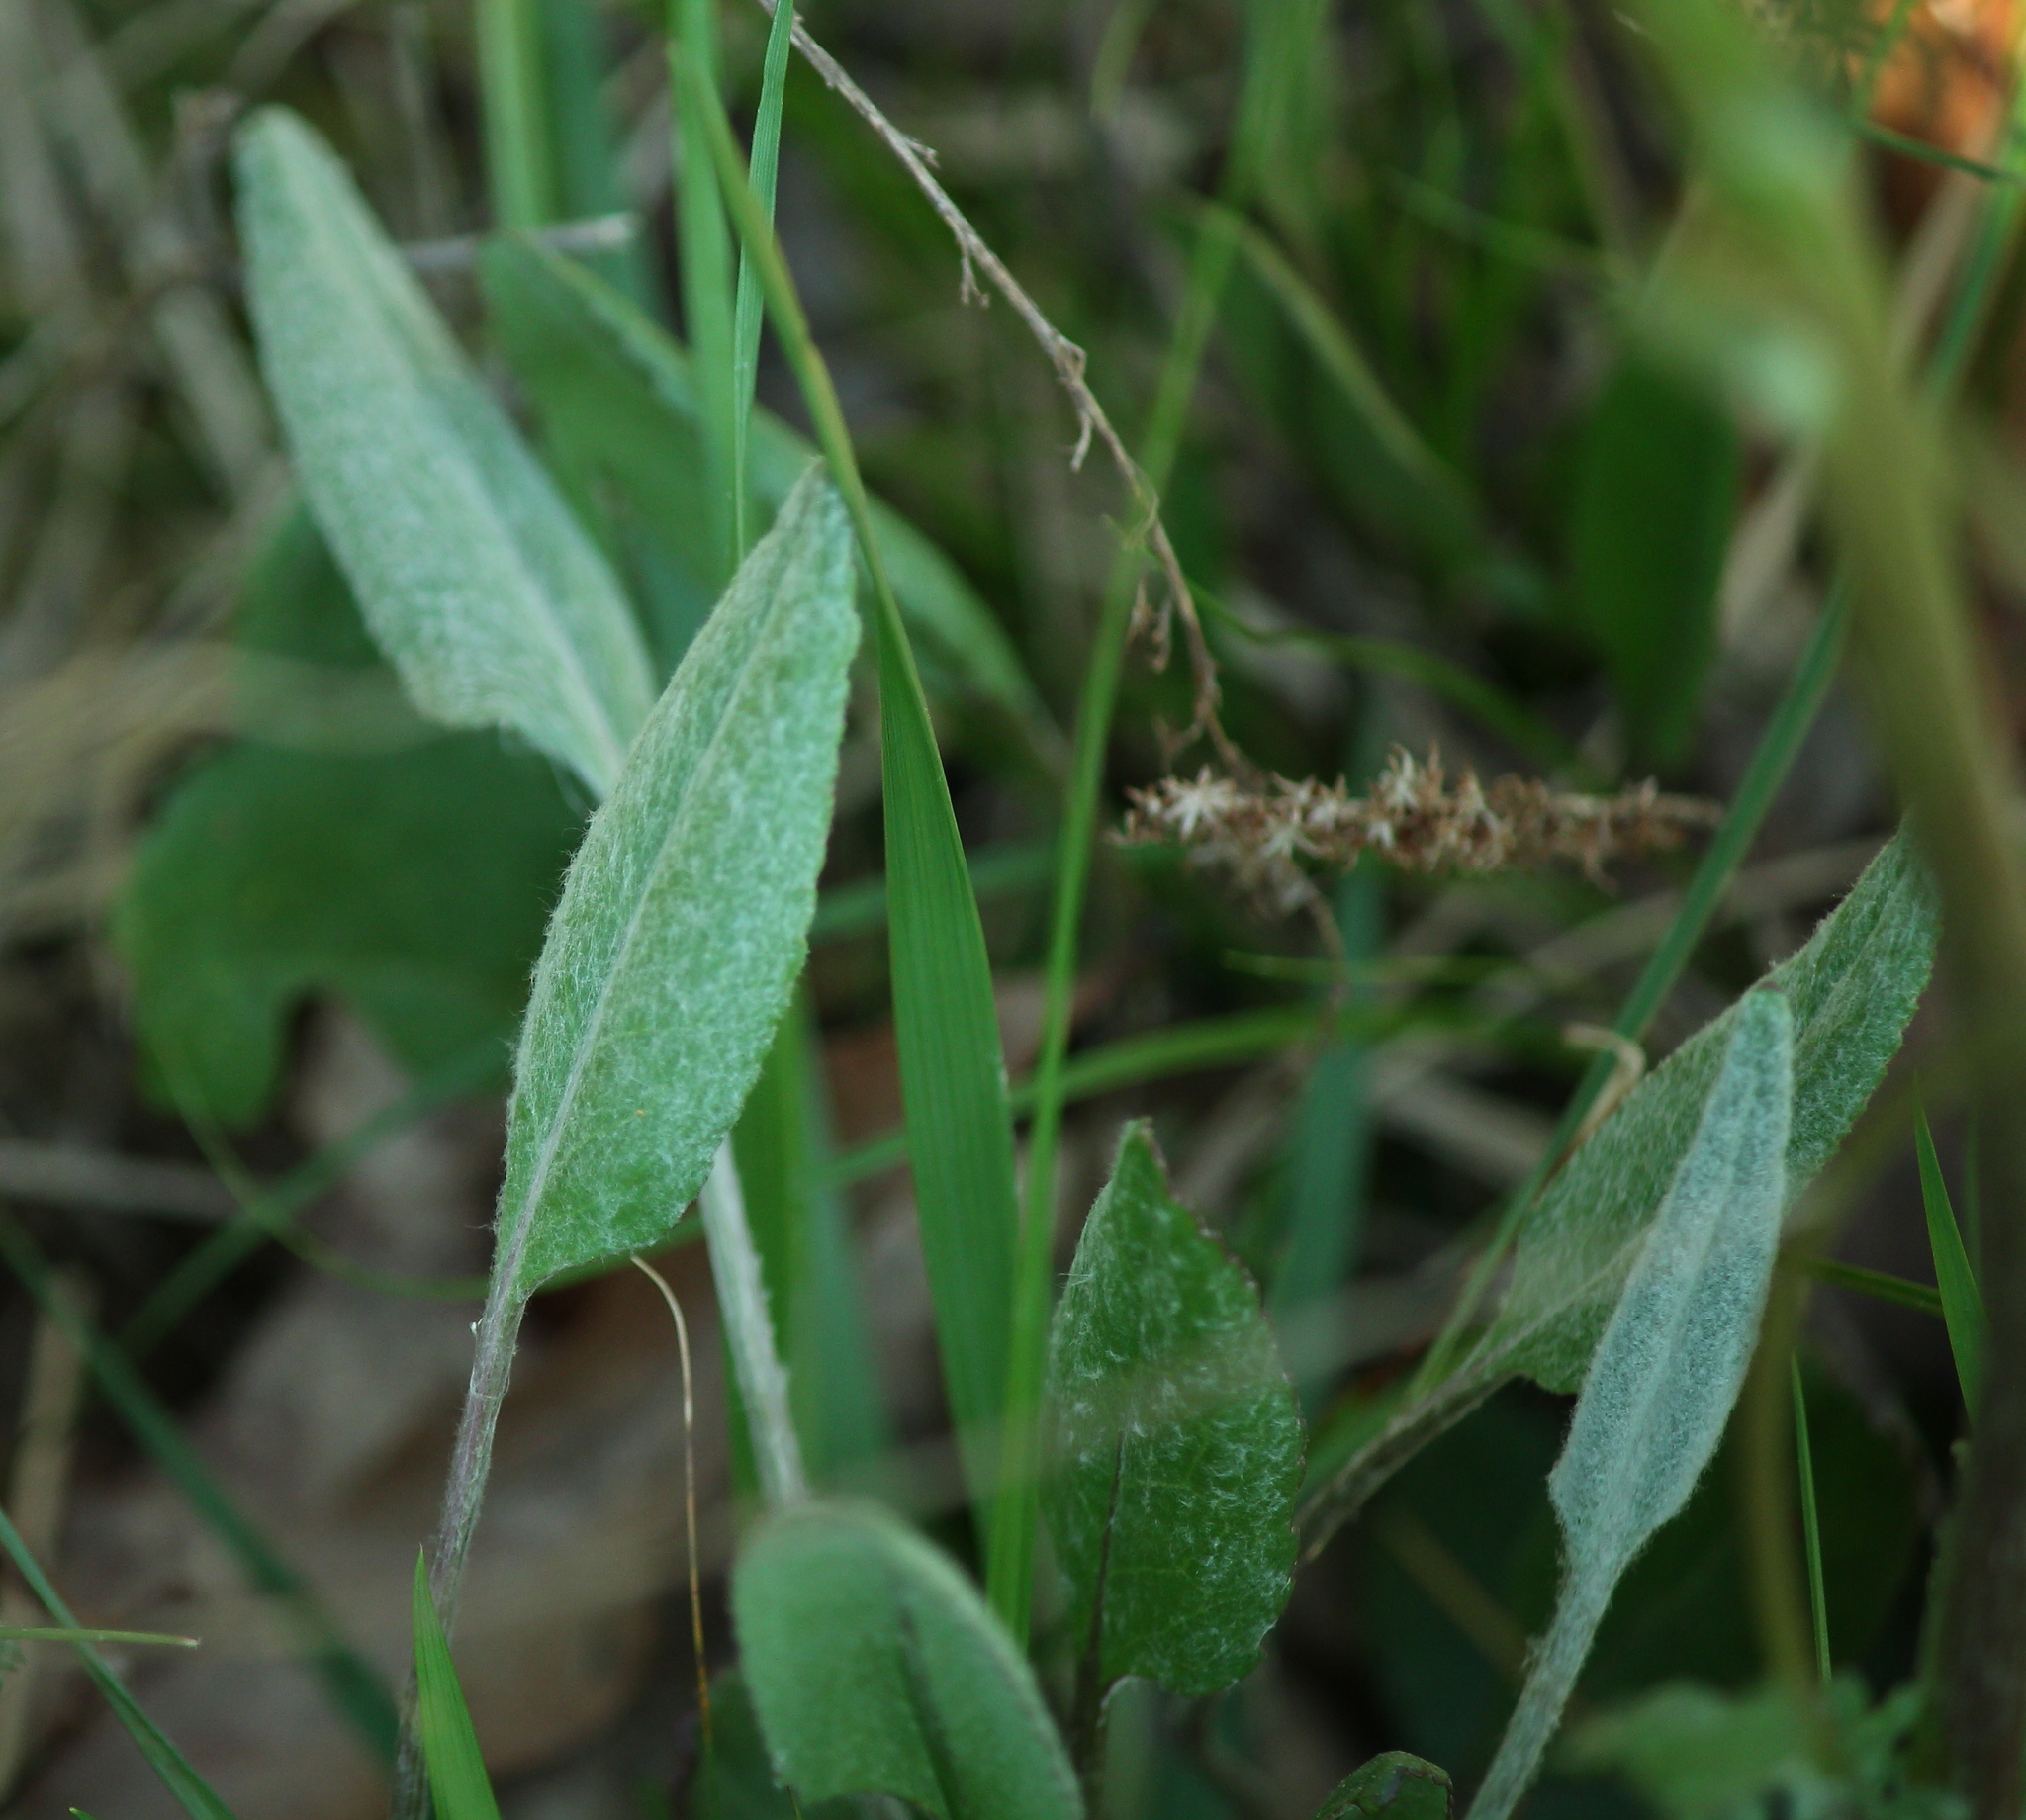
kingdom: Plantae
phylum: Tracheophyta
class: Magnoliopsida
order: Asterales
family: Asteraceae
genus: Packera
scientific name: Packera dubia
